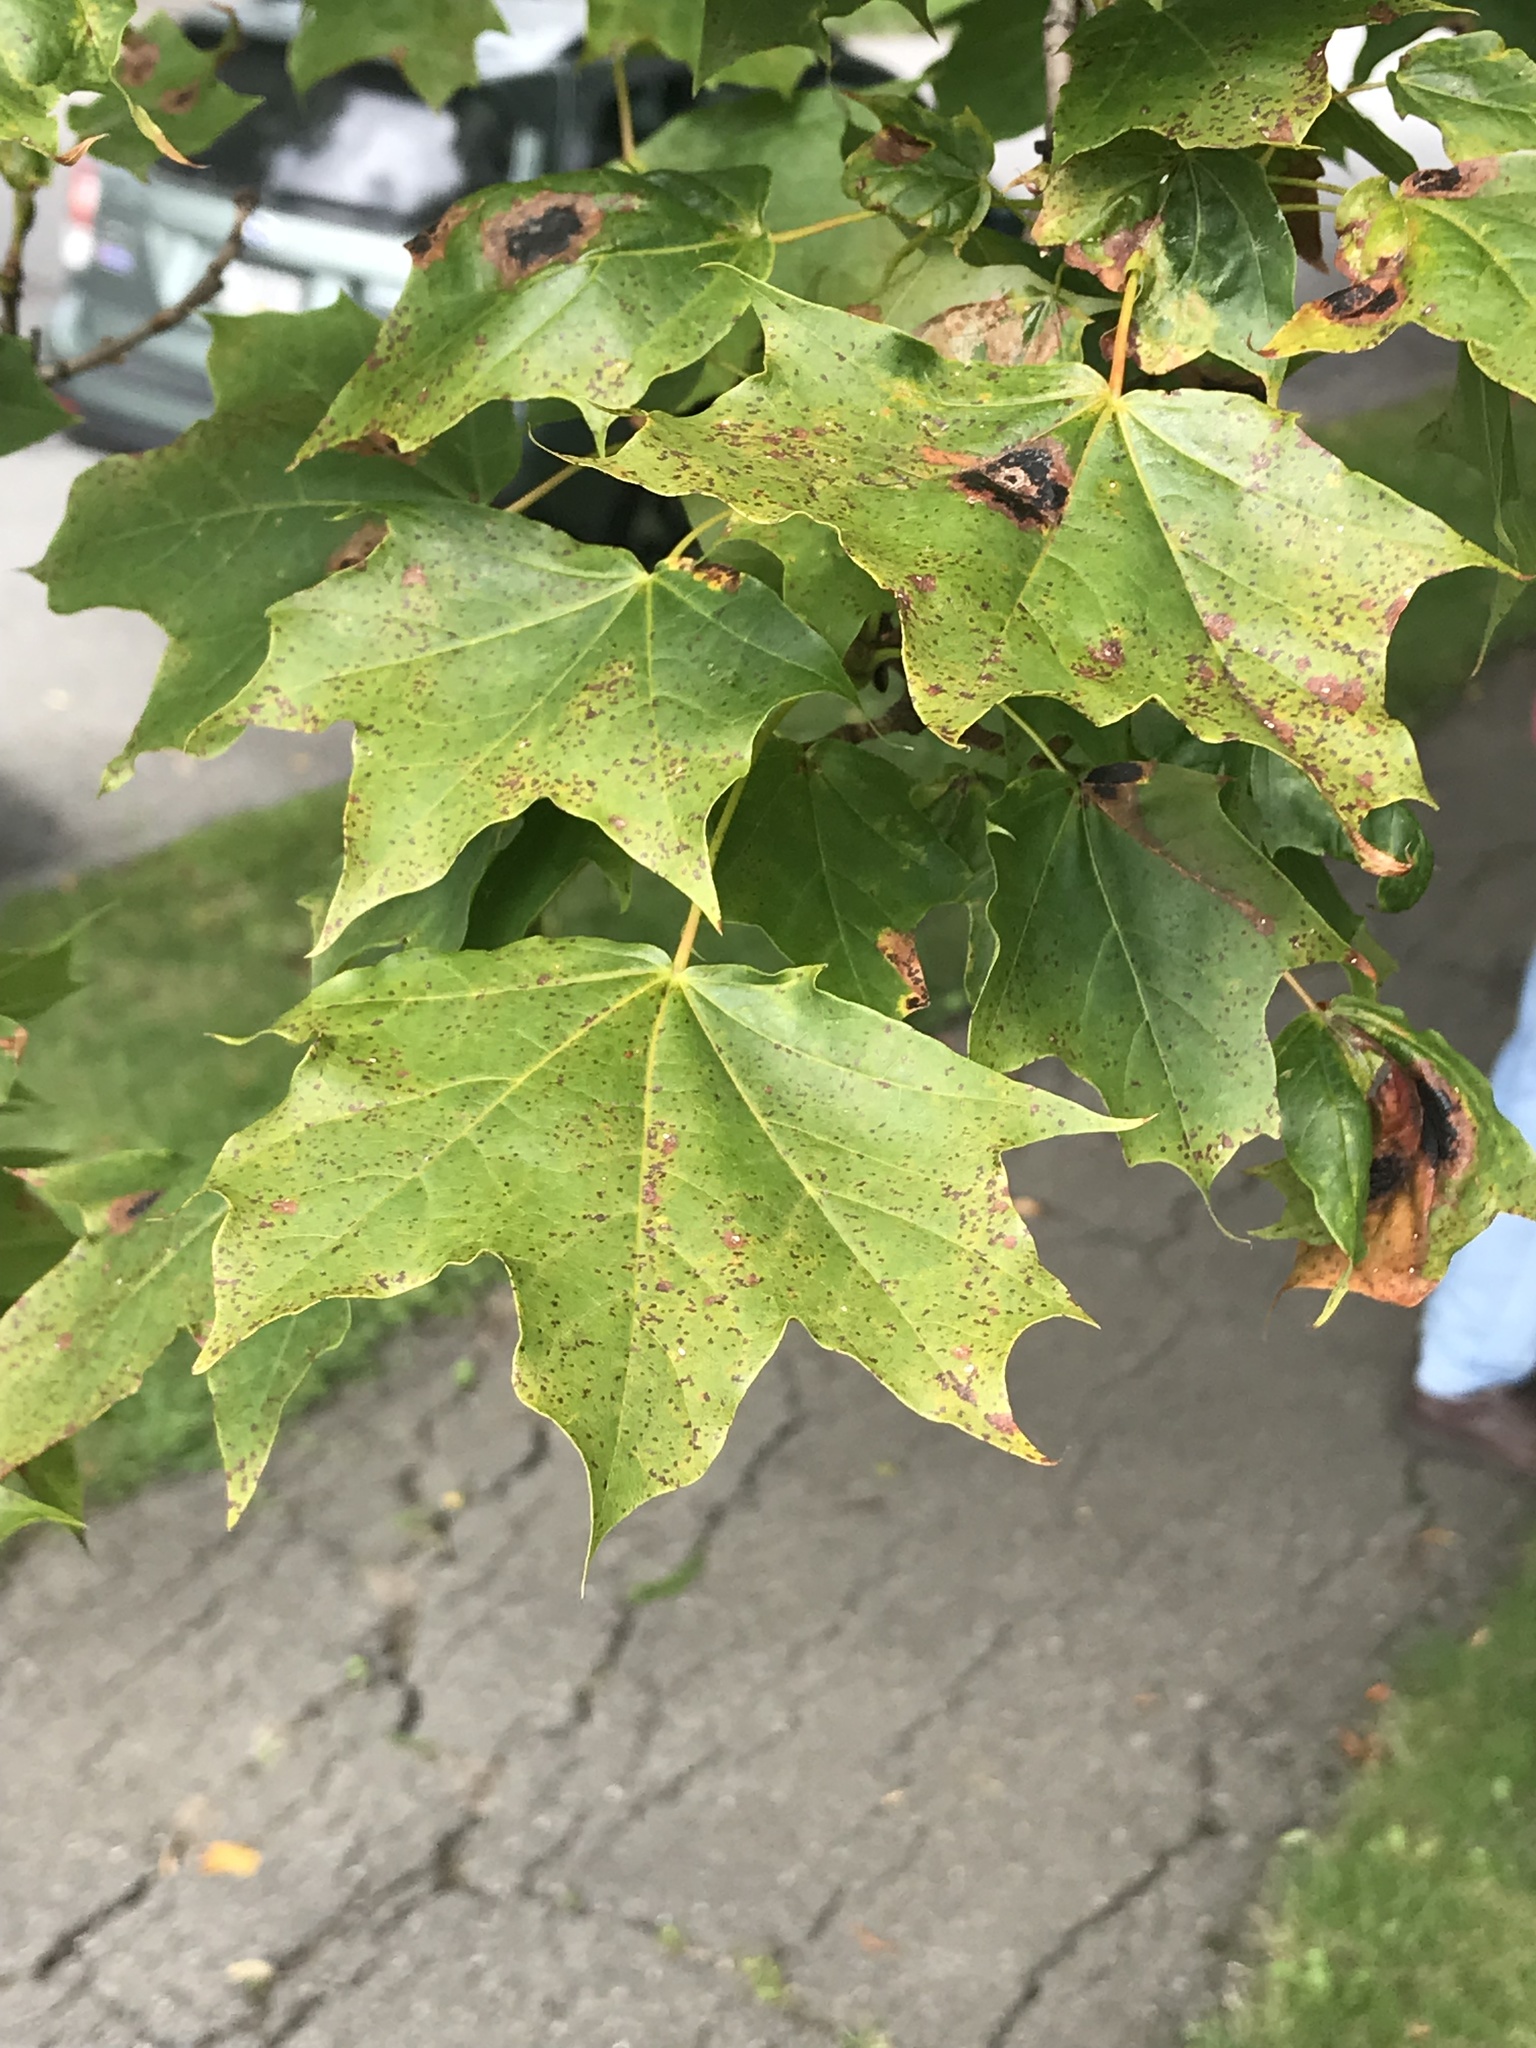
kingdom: Plantae
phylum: Tracheophyta
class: Magnoliopsida
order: Sapindales
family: Sapindaceae
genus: Acer
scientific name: Acer platanoides
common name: Norway maple
